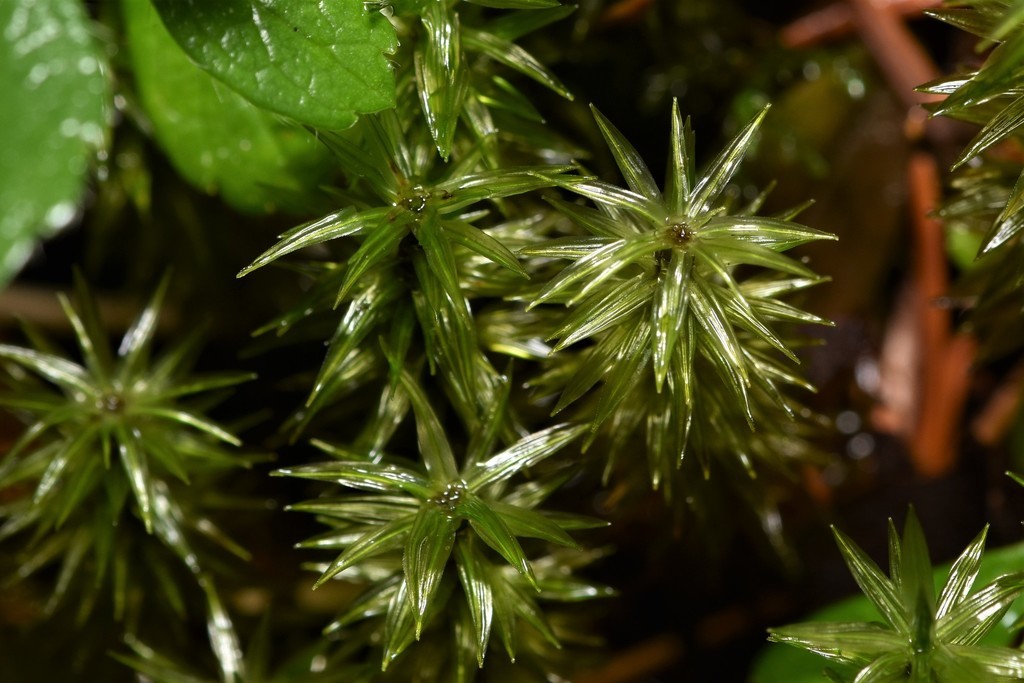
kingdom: Plantae
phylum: Bryophyta
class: Bryopsida
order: Timmiales
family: Timmiaceae
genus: Timmia
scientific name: Timmia austriaca
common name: Austrian timmia
